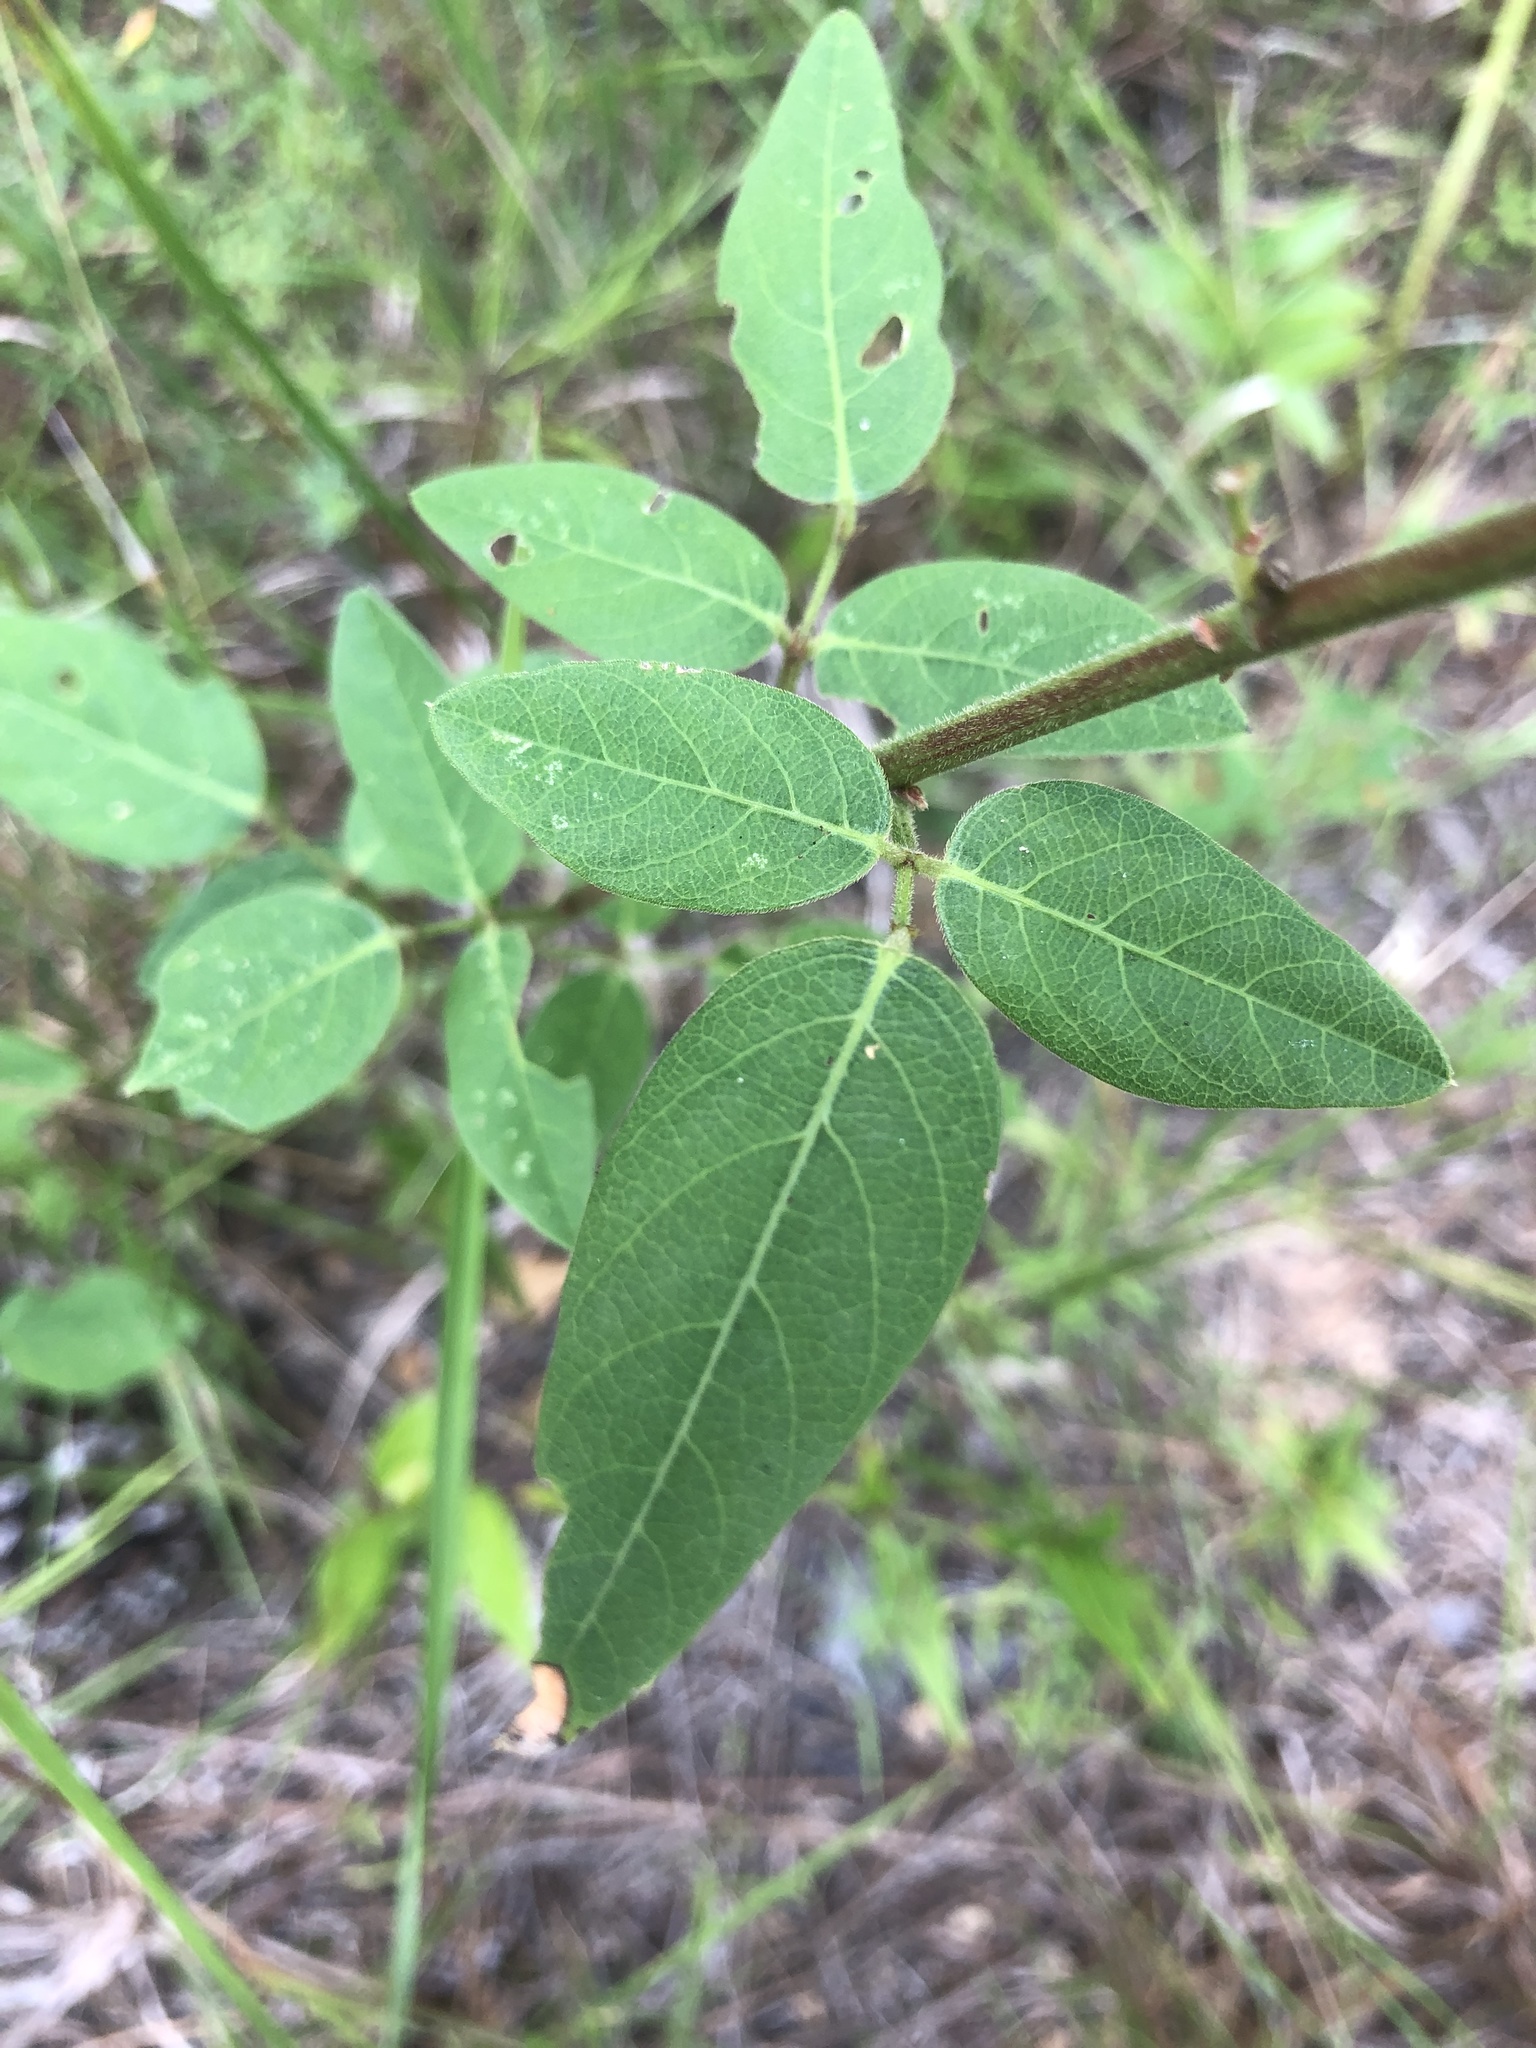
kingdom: Plantae
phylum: Tracheophyta
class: Magnoliopsida
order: Fabales
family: Fabaceae
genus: Desmodium
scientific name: Desmodium obtusum
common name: Stiff tick trefoil
